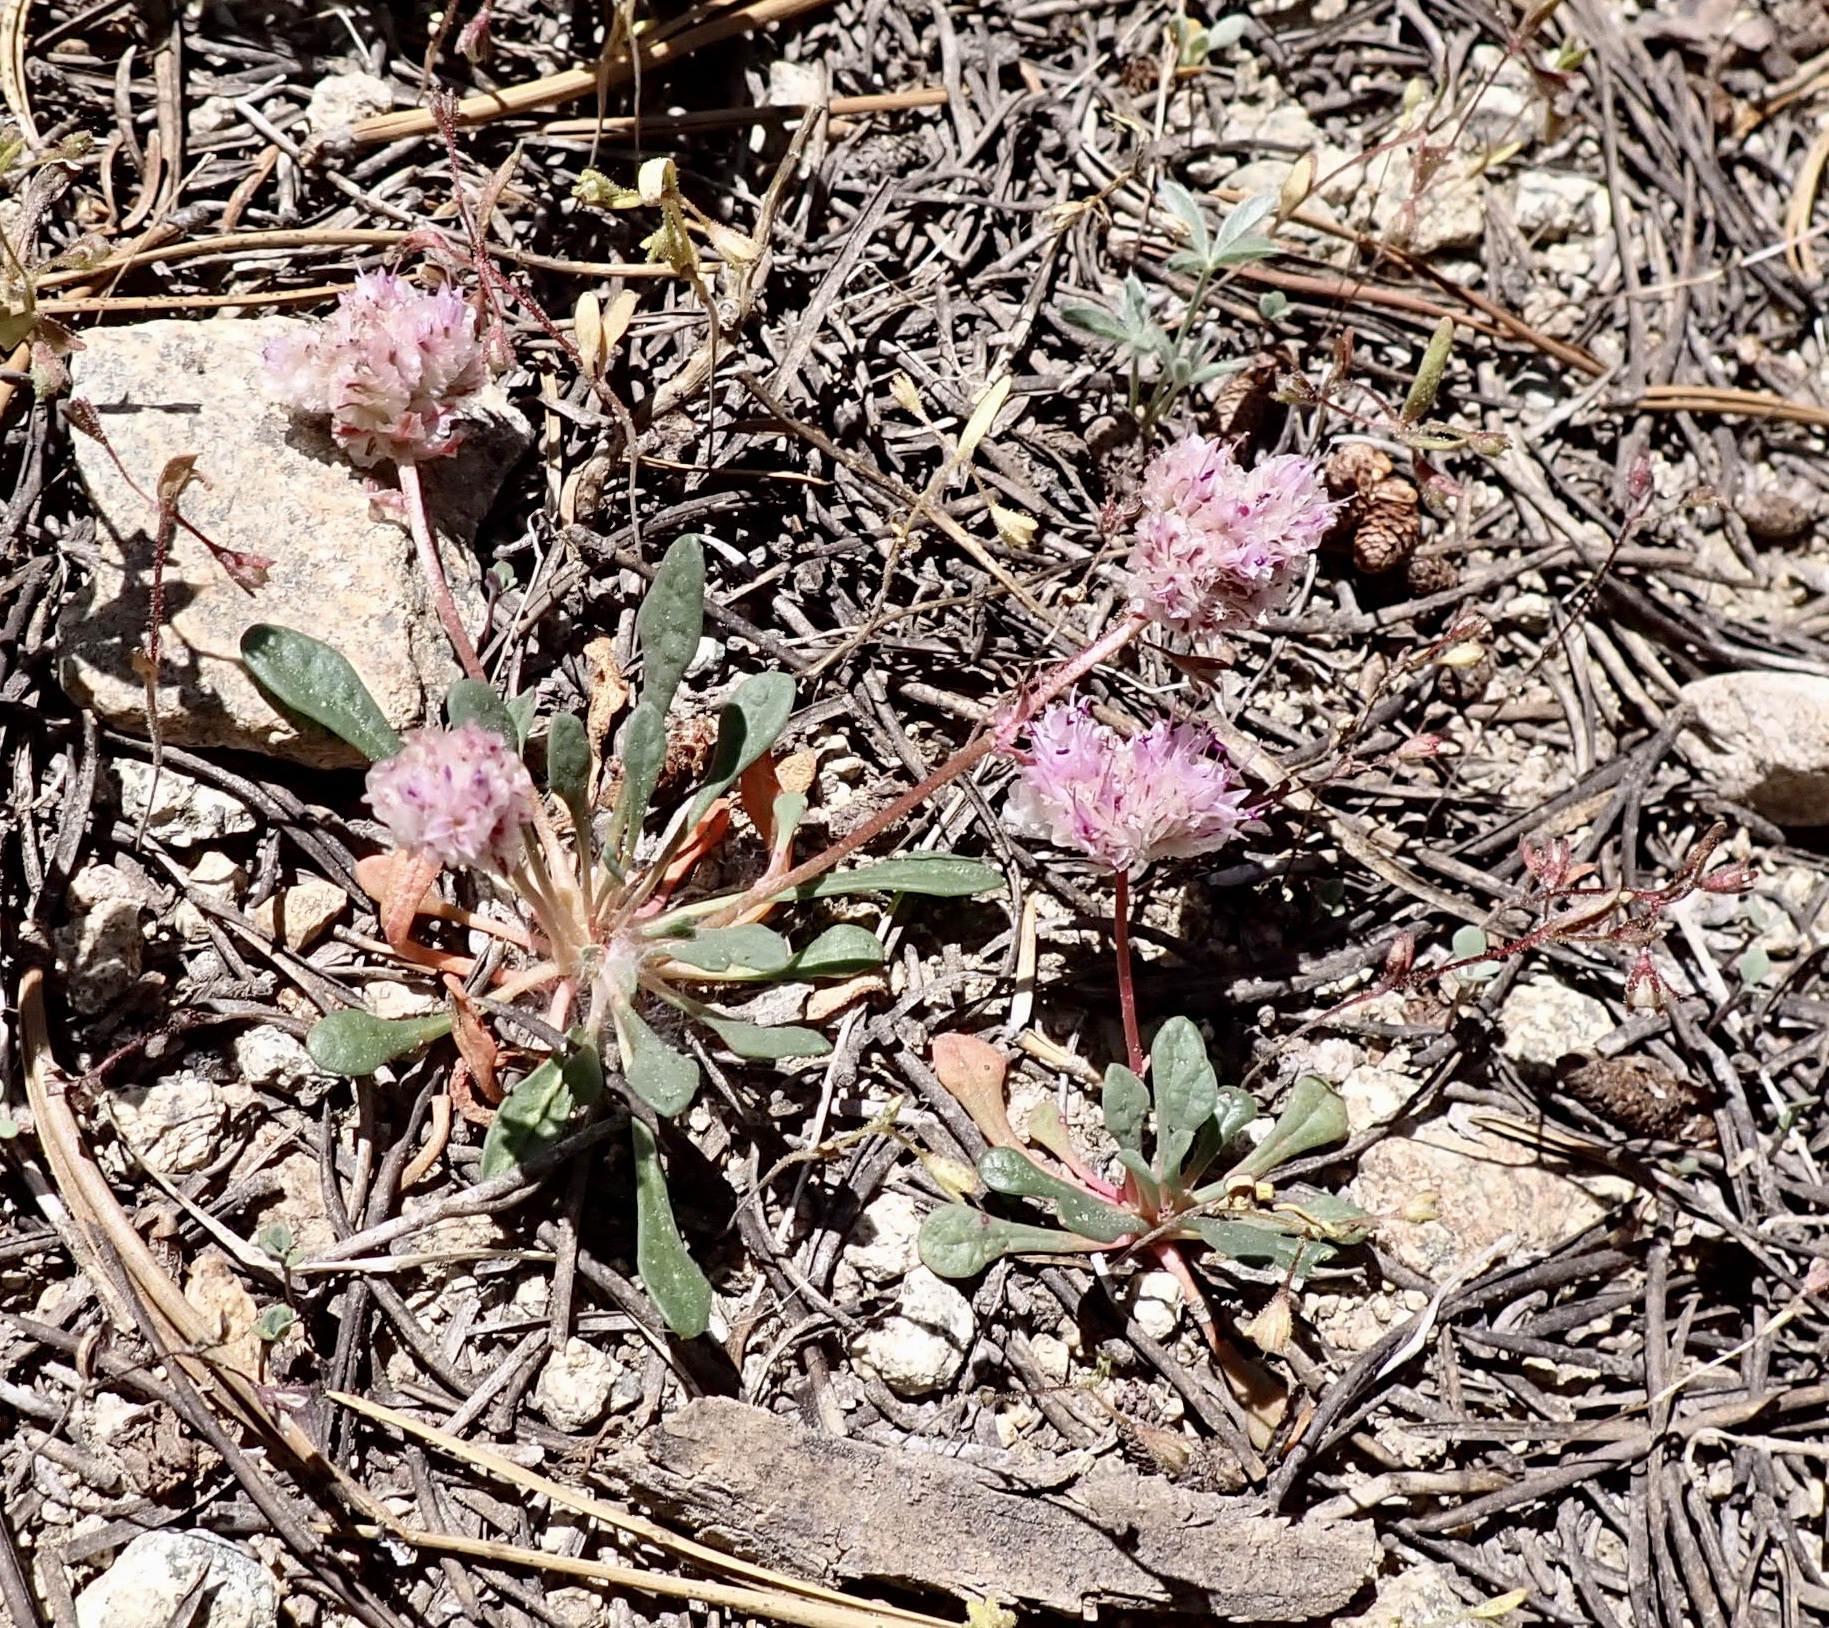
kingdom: Plantae
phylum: Tracheophyta
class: Magnoliopsida
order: Caryophyllales
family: Montiaceae
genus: Calyptridium
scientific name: Calyptridium monospermum
